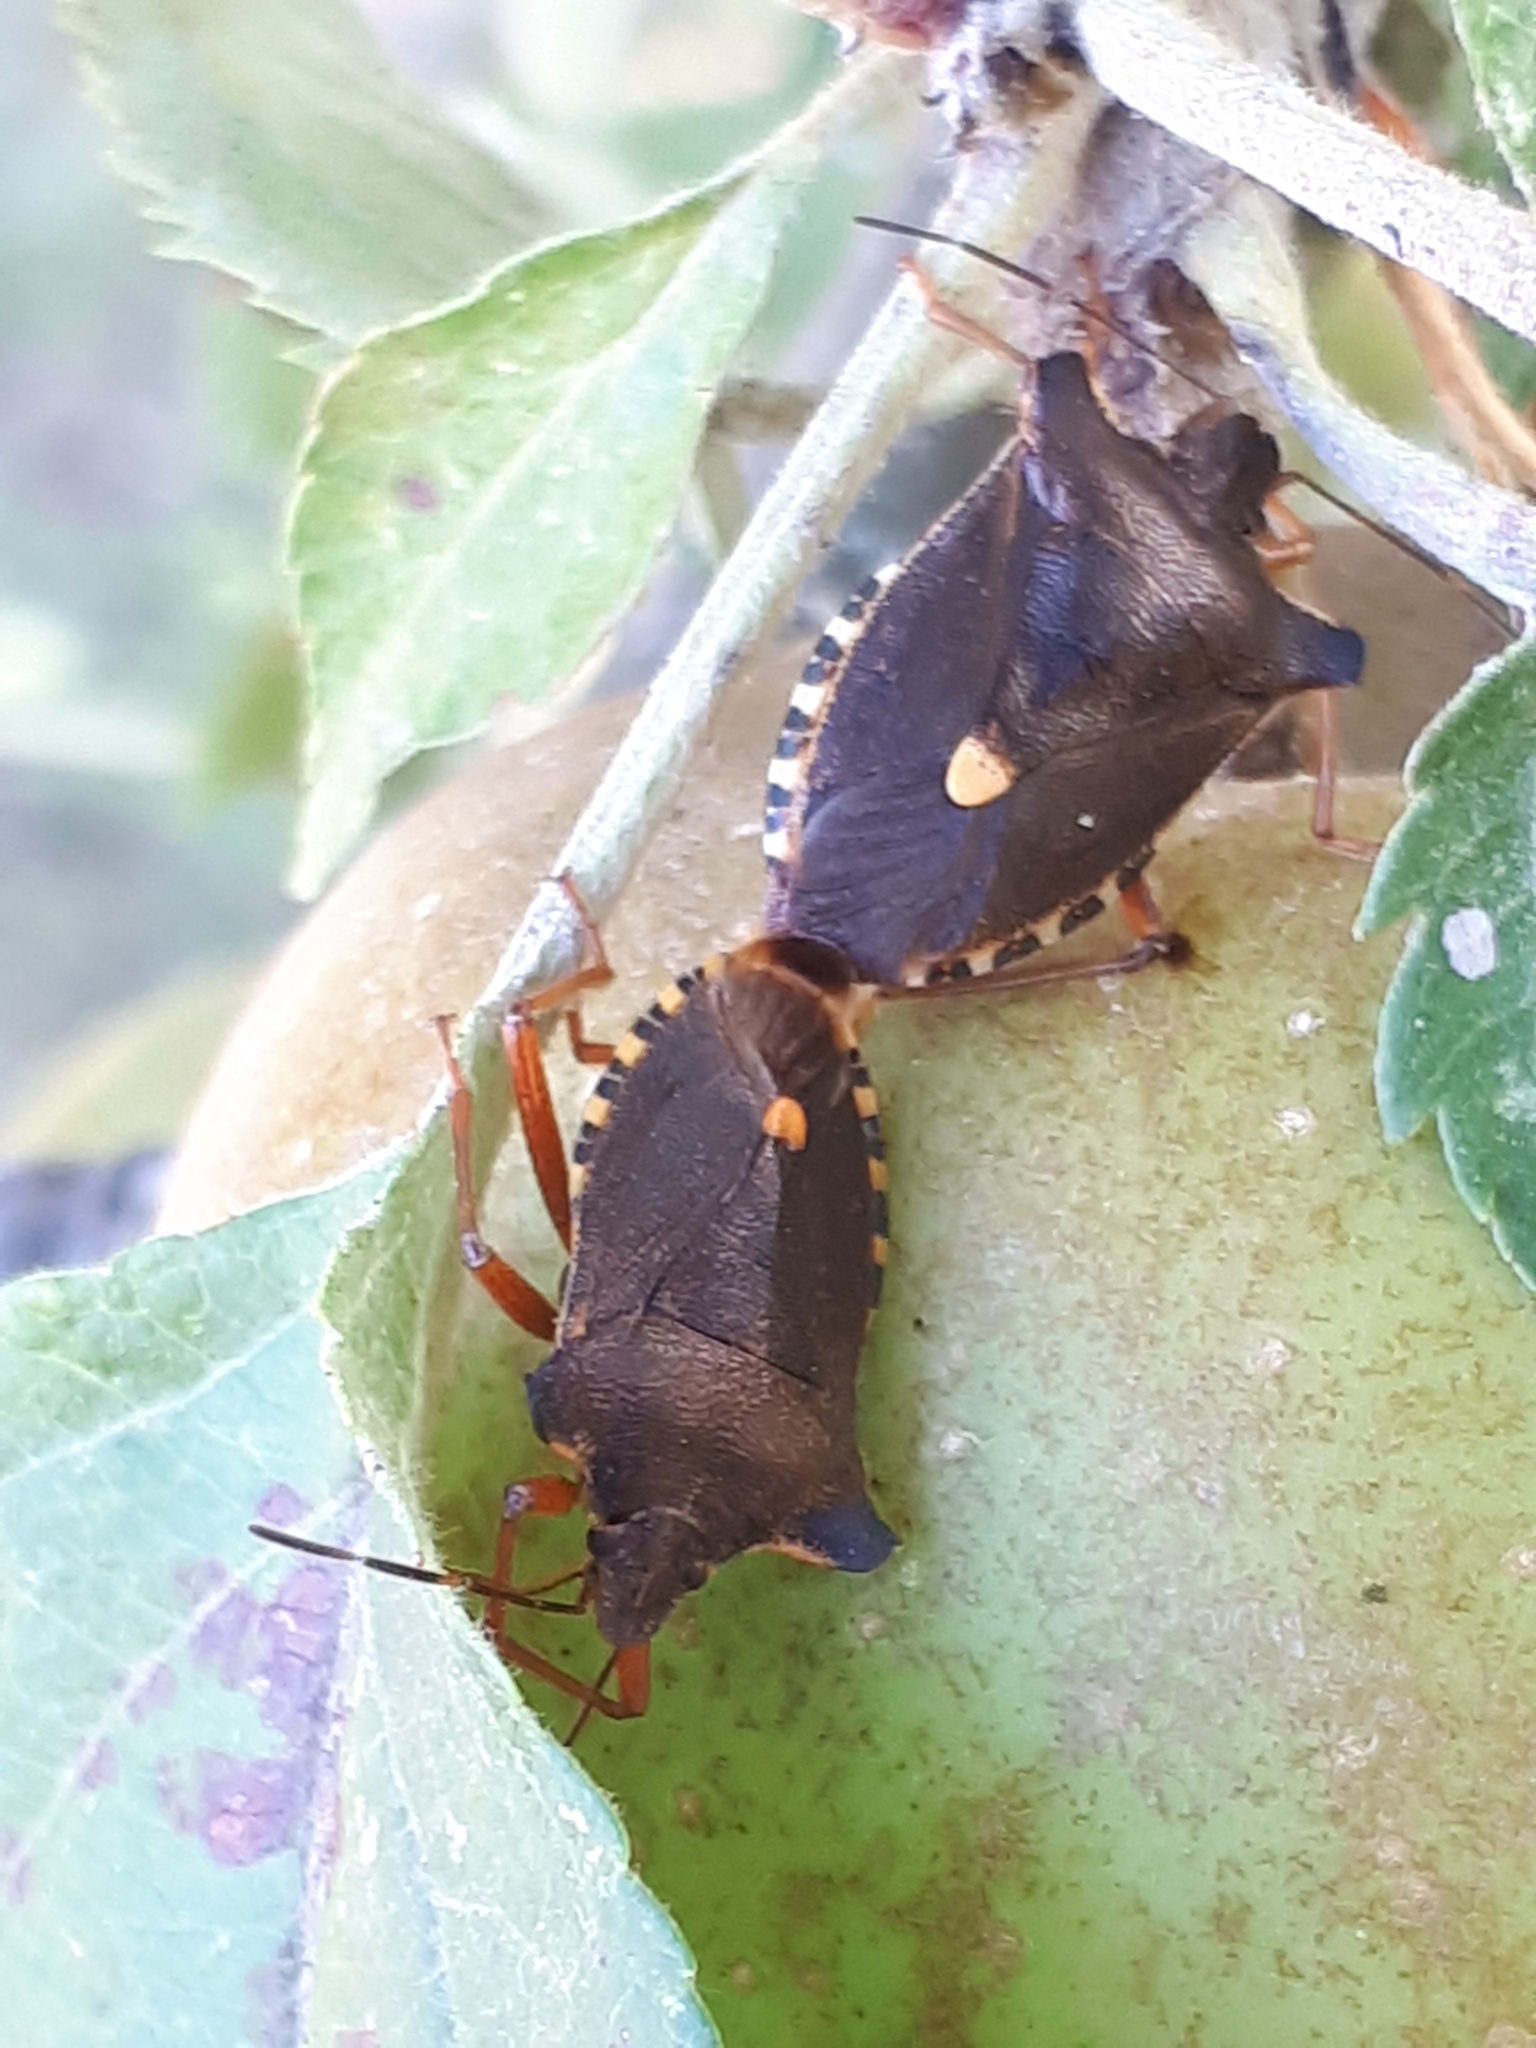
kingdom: Animalia
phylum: Arthropoda
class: Insecta
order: Hemiptera
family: Pentatomidae
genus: Pentatoma
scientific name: Pentatoma rufipes
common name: Forest bug
